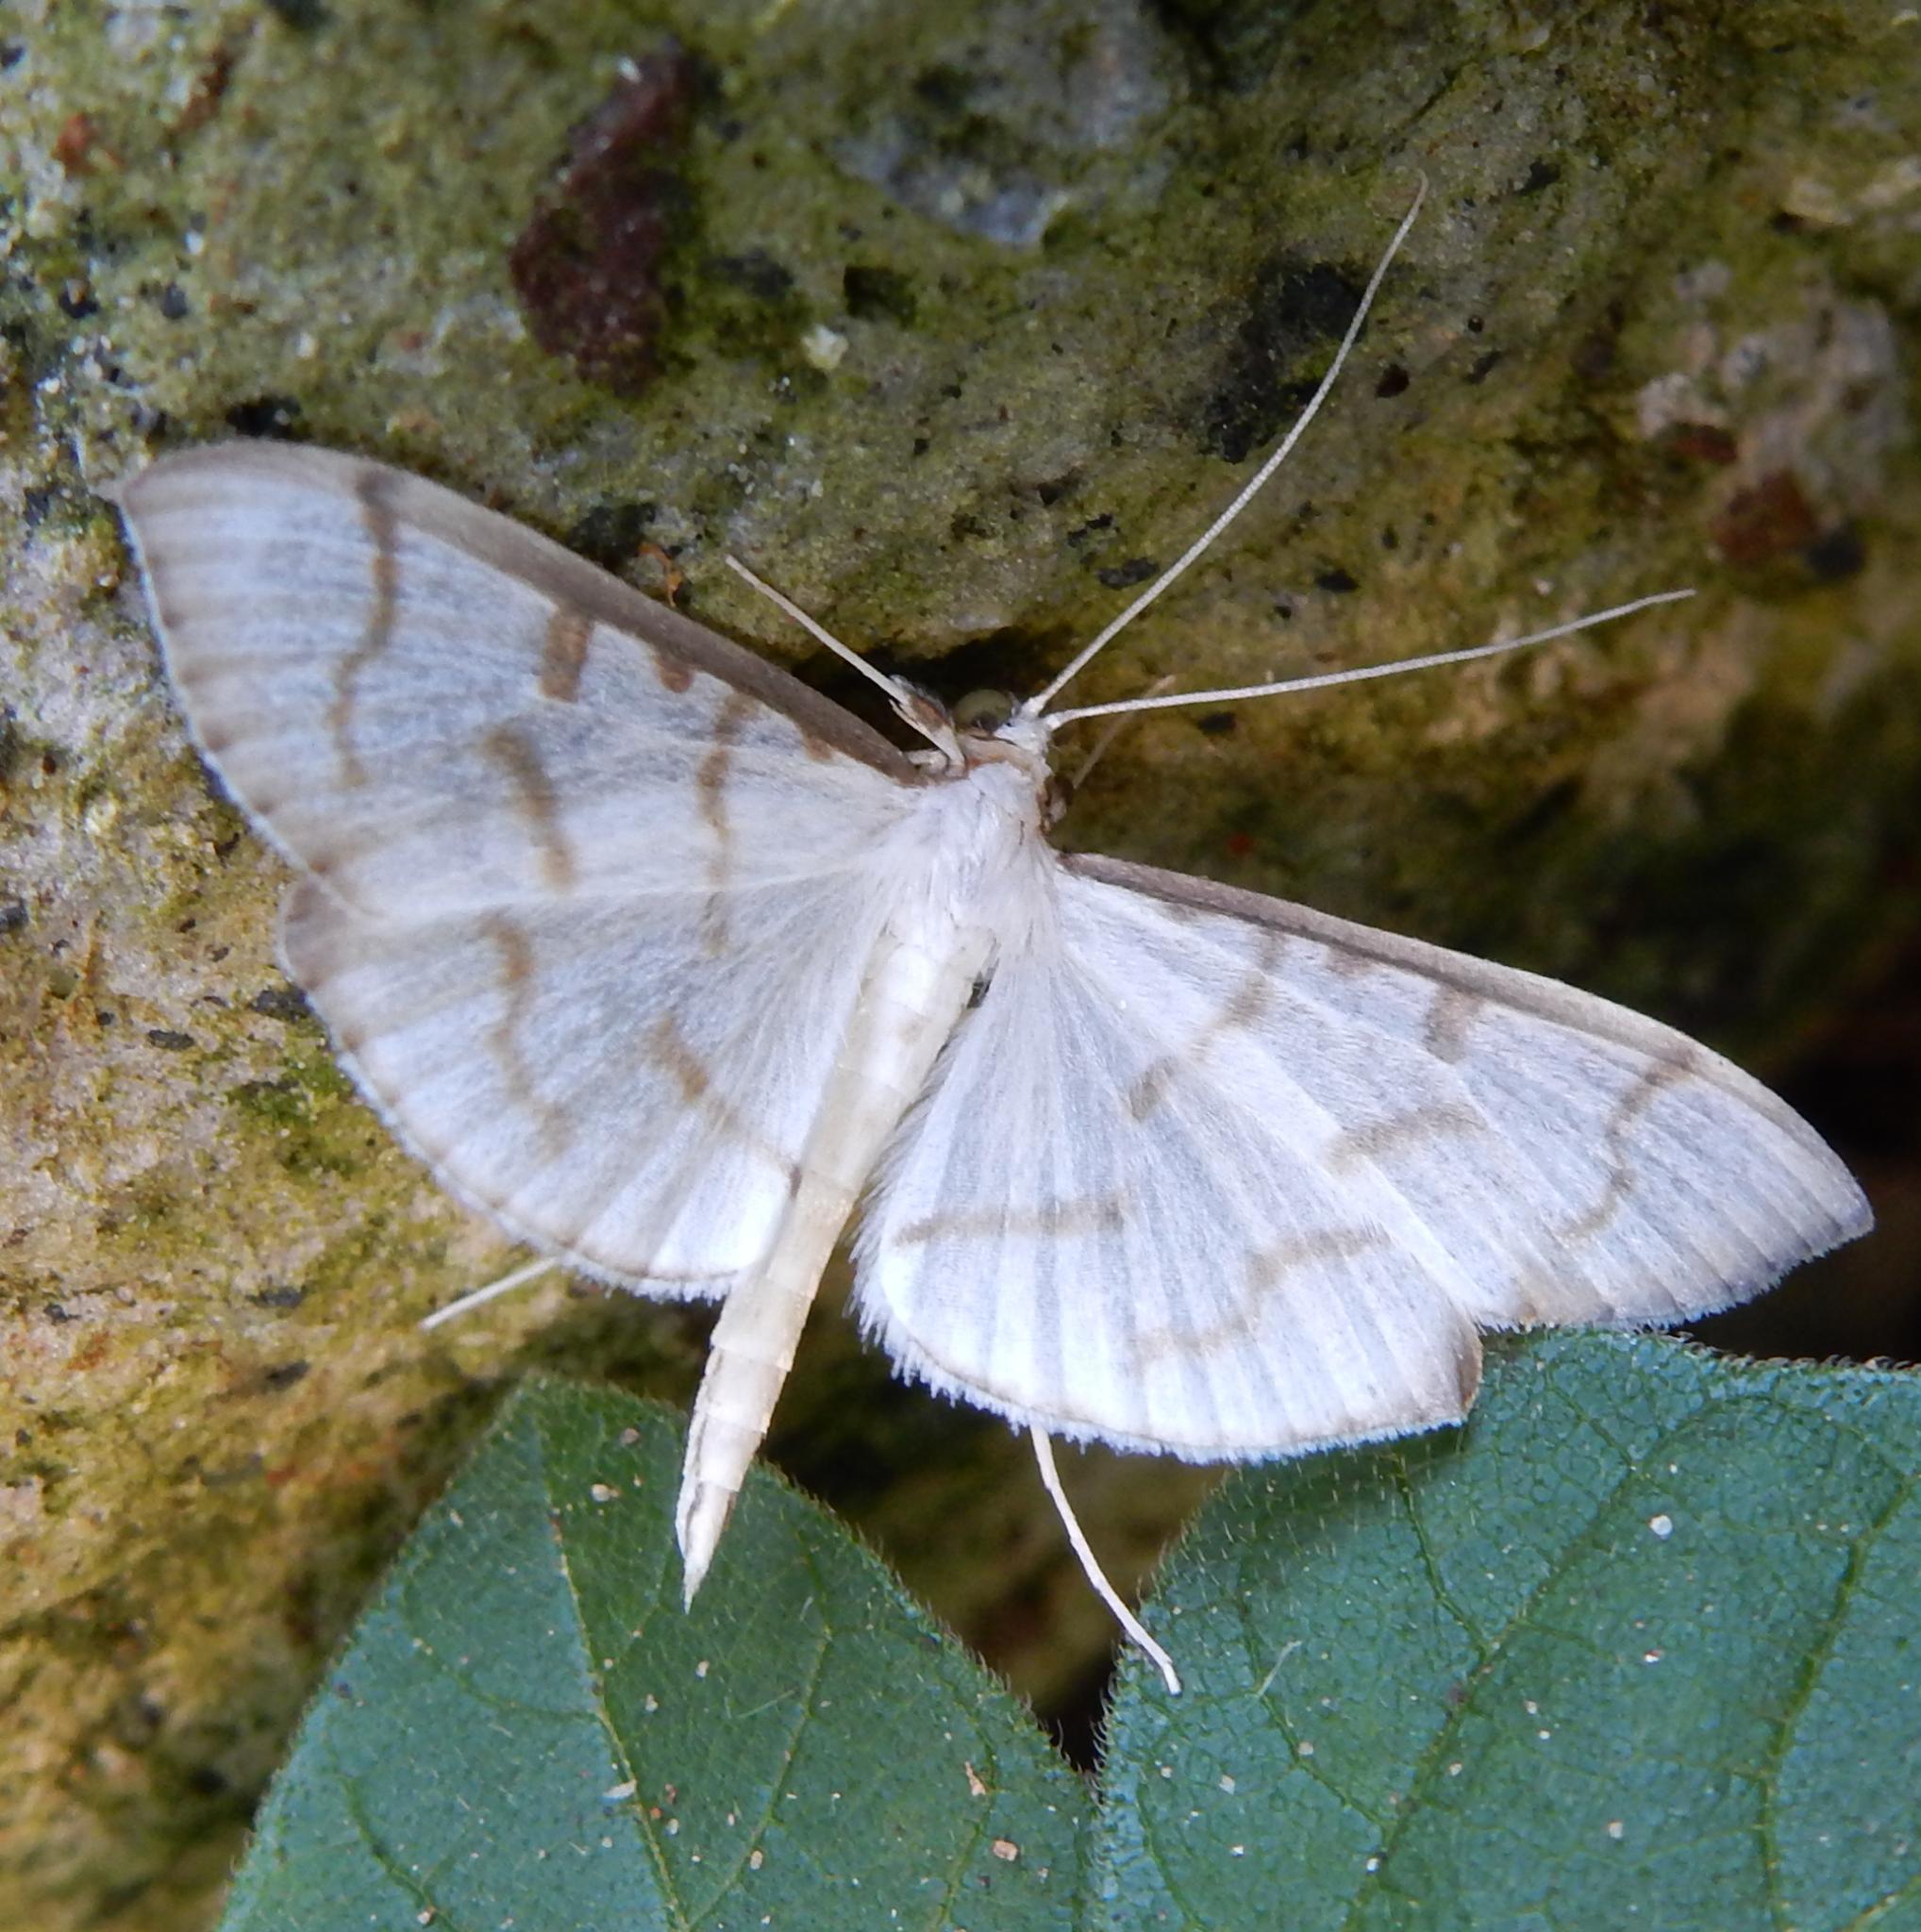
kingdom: Animalia
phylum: Arthropoda
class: Insecta
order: Lepidoptera
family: Crambidae
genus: Antigastra
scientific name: Antigastra morysalis
